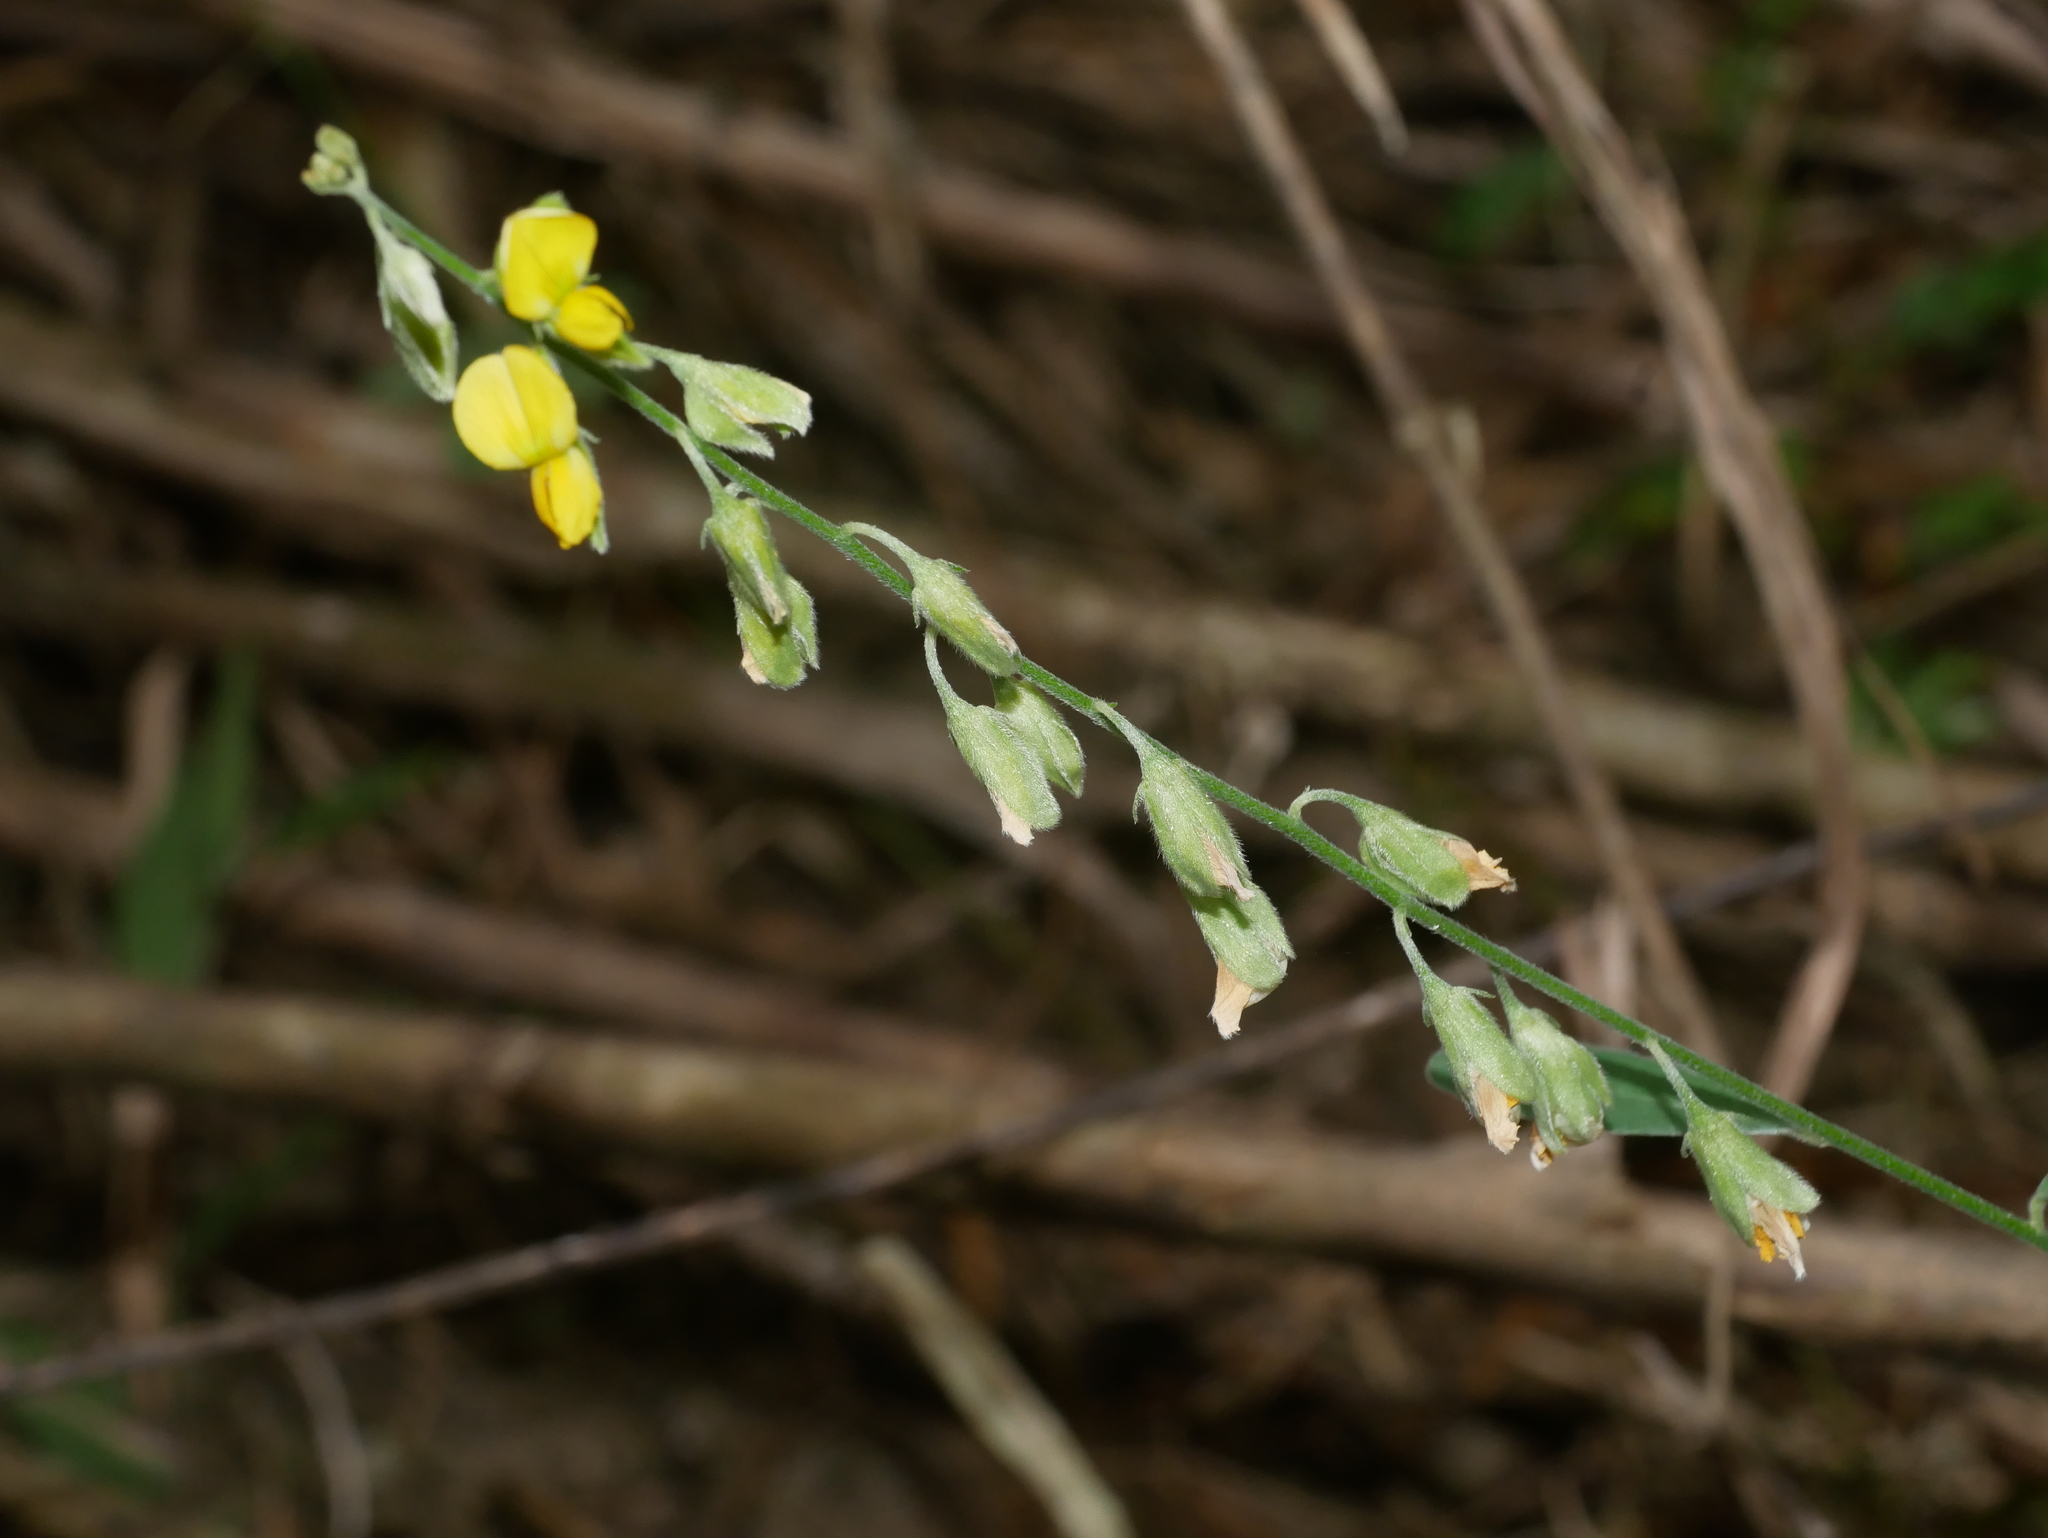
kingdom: Plantae
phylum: Tracheophyta
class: Magnoliopsida
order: Fabales
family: Fabaceae
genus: Crotalaria
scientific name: Crotalaria albida
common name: Taiwan crotalaria
